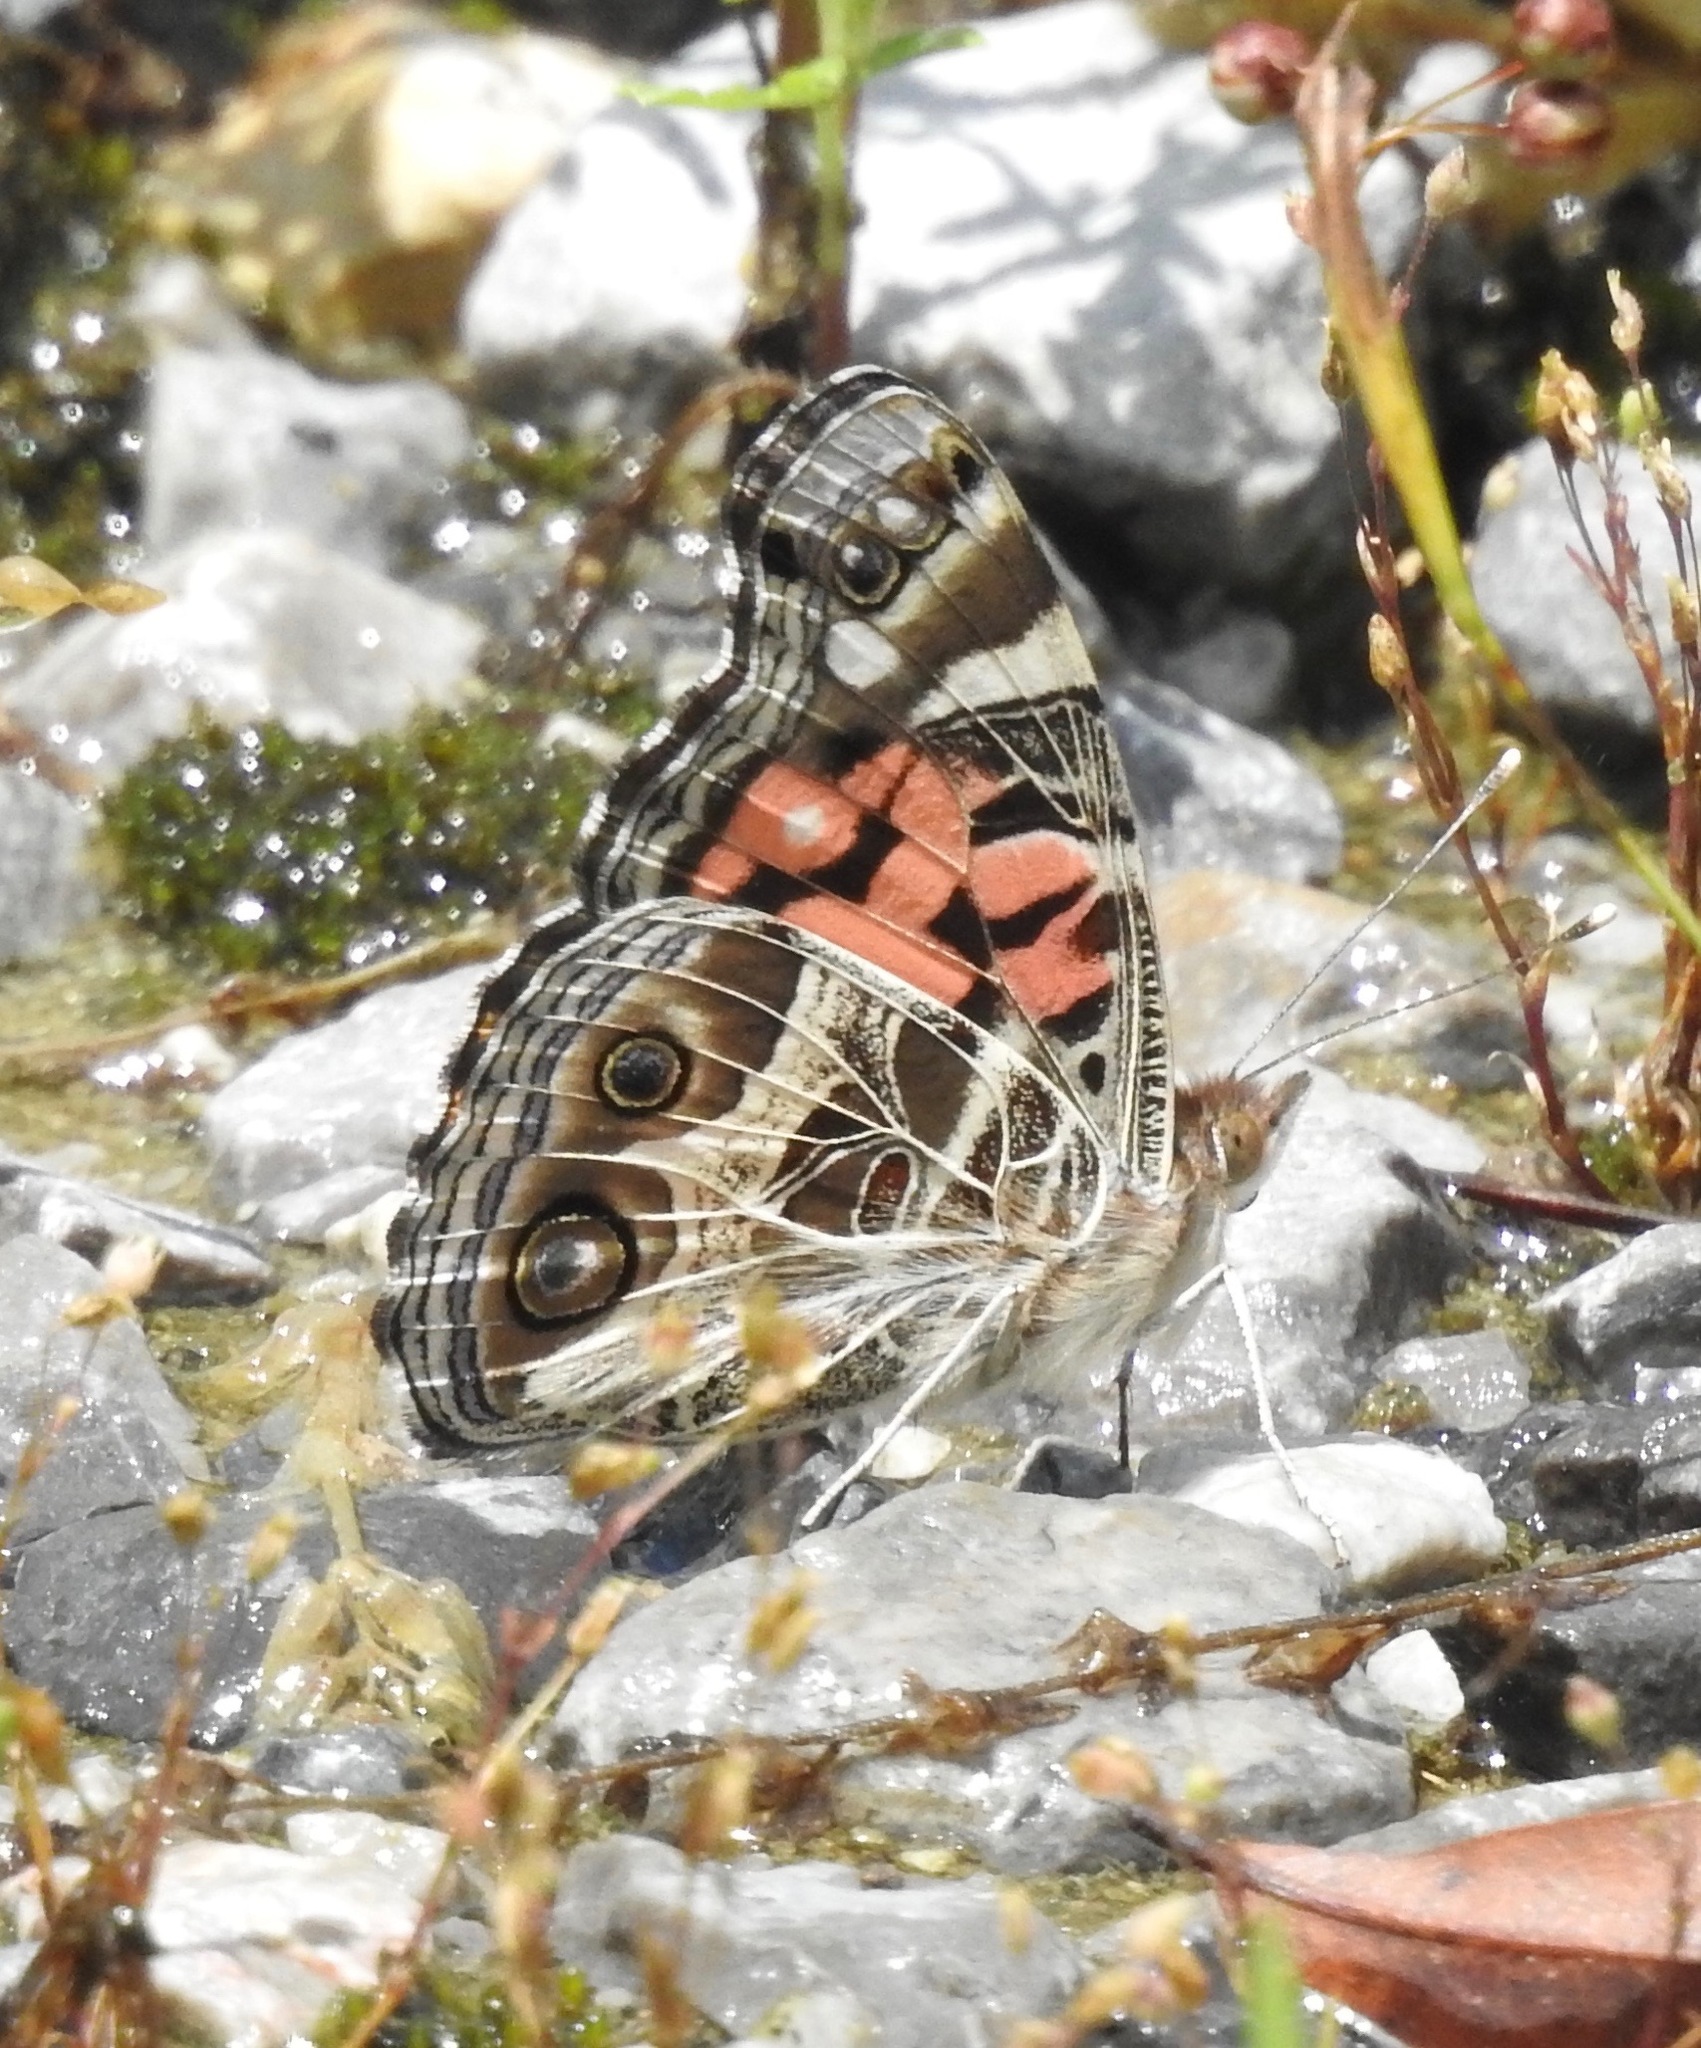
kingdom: Animalia
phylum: Arthropoda
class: Insecta
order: Lepidoptera
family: Nymphalidae
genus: Vanessa
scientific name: Vanessa virginiensis
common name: American lady
